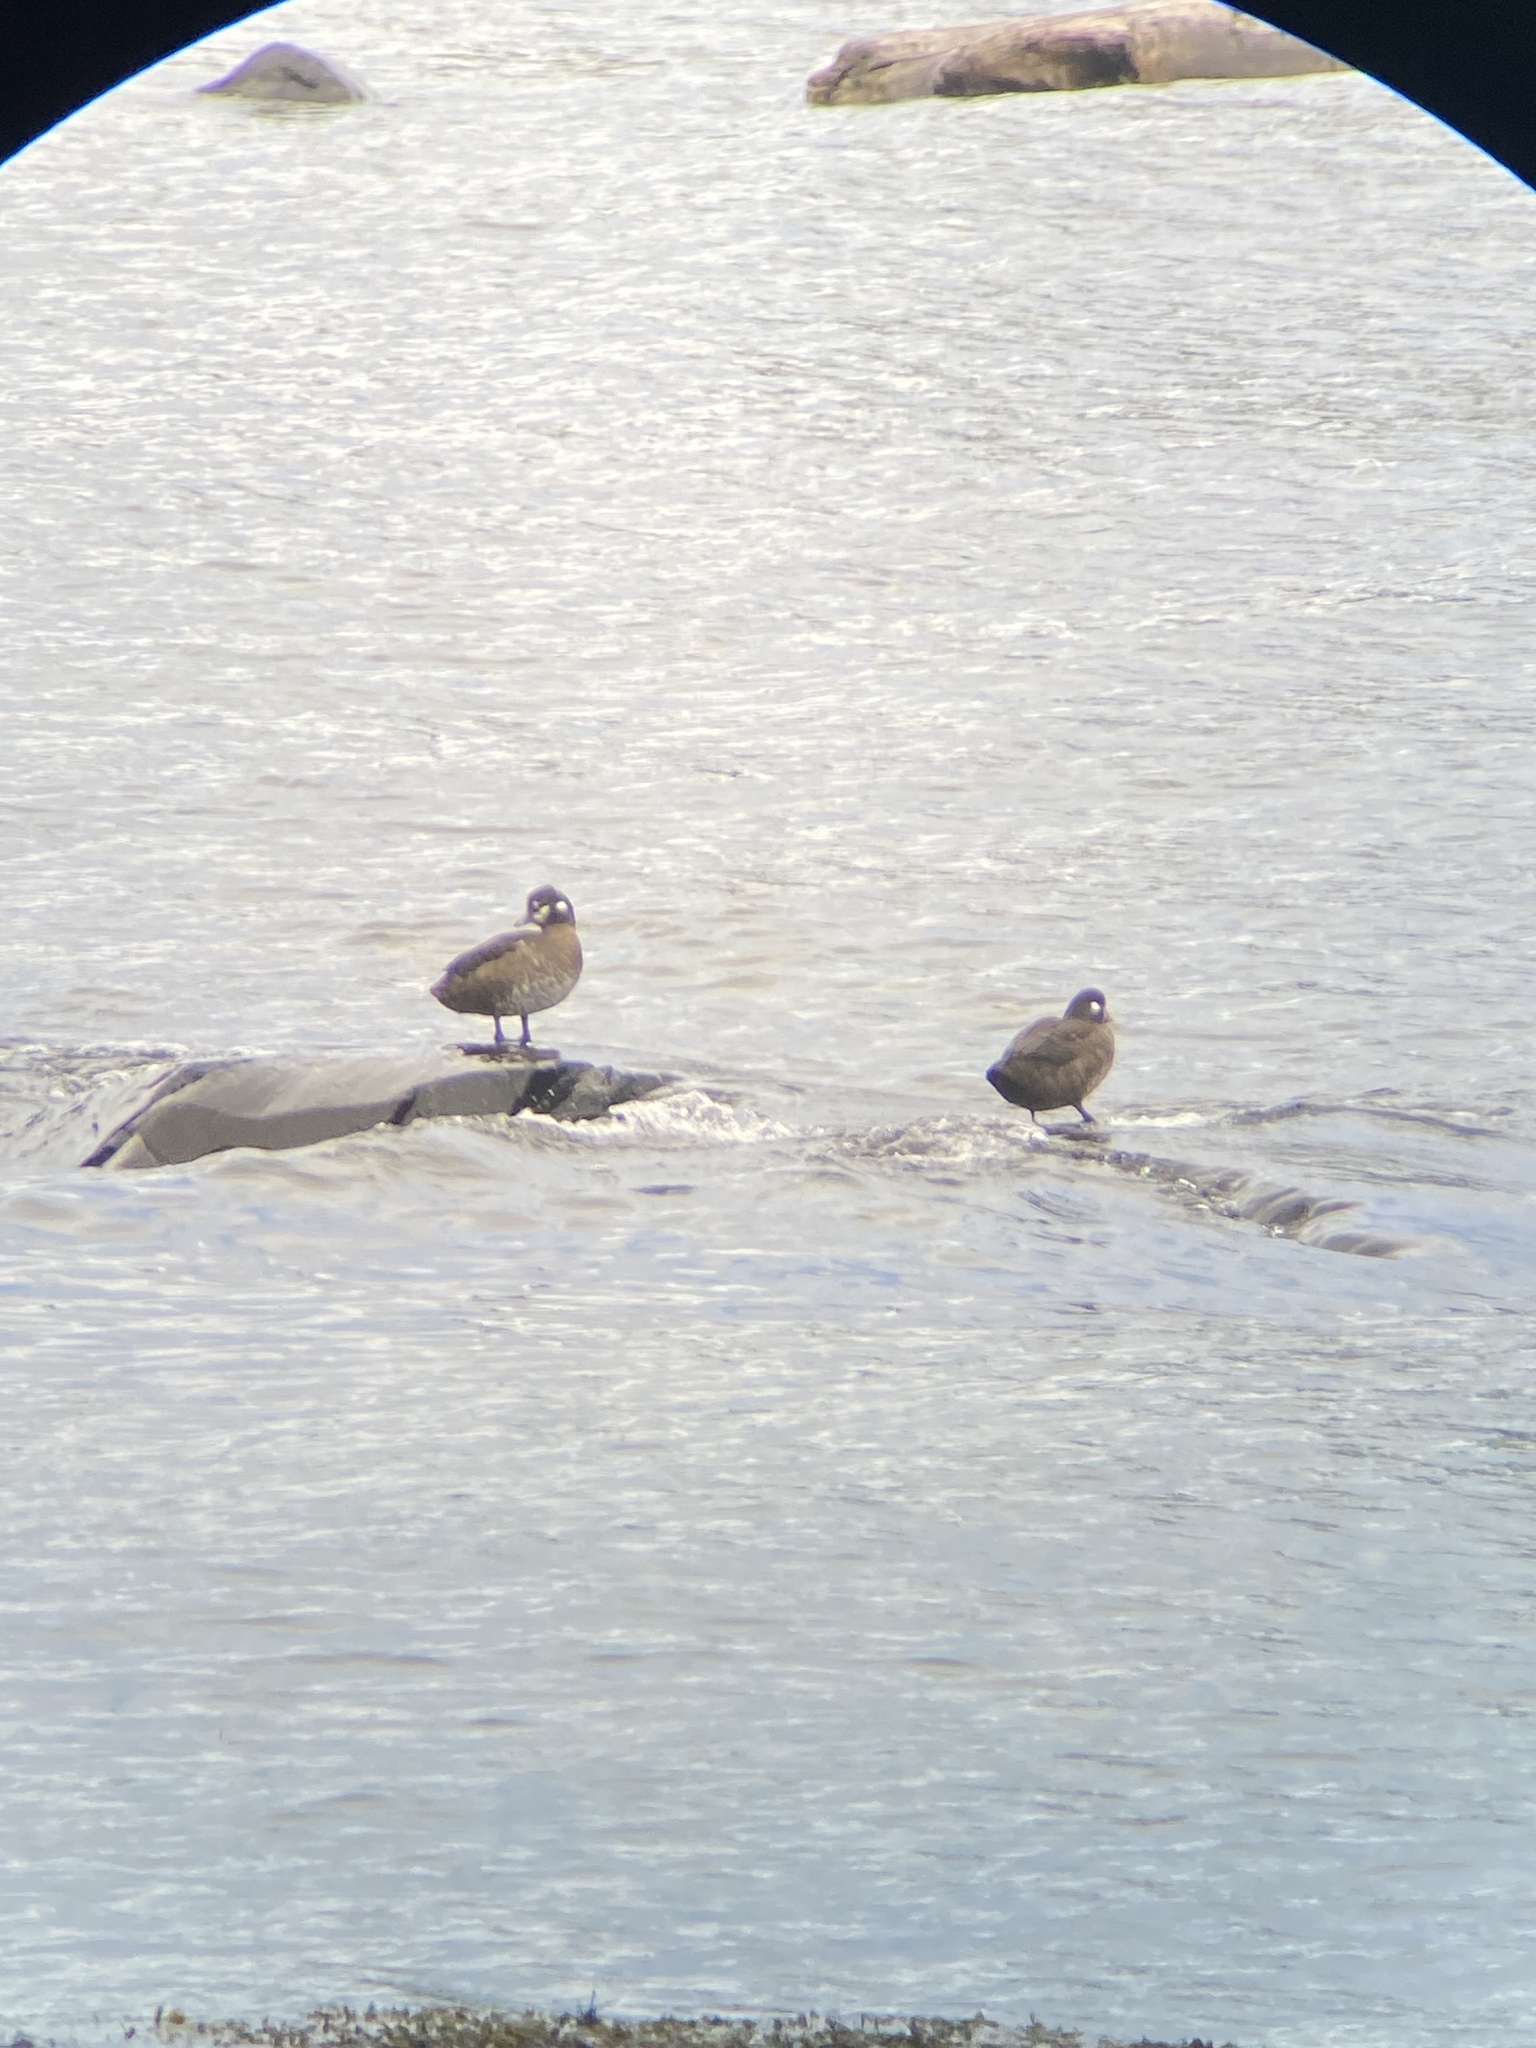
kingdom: Animalia
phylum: Chordata
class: Aves
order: Anseriformes
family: Anatidae
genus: Histrionicus
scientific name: Histrionicus histrionicus
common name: Harlequin duck
